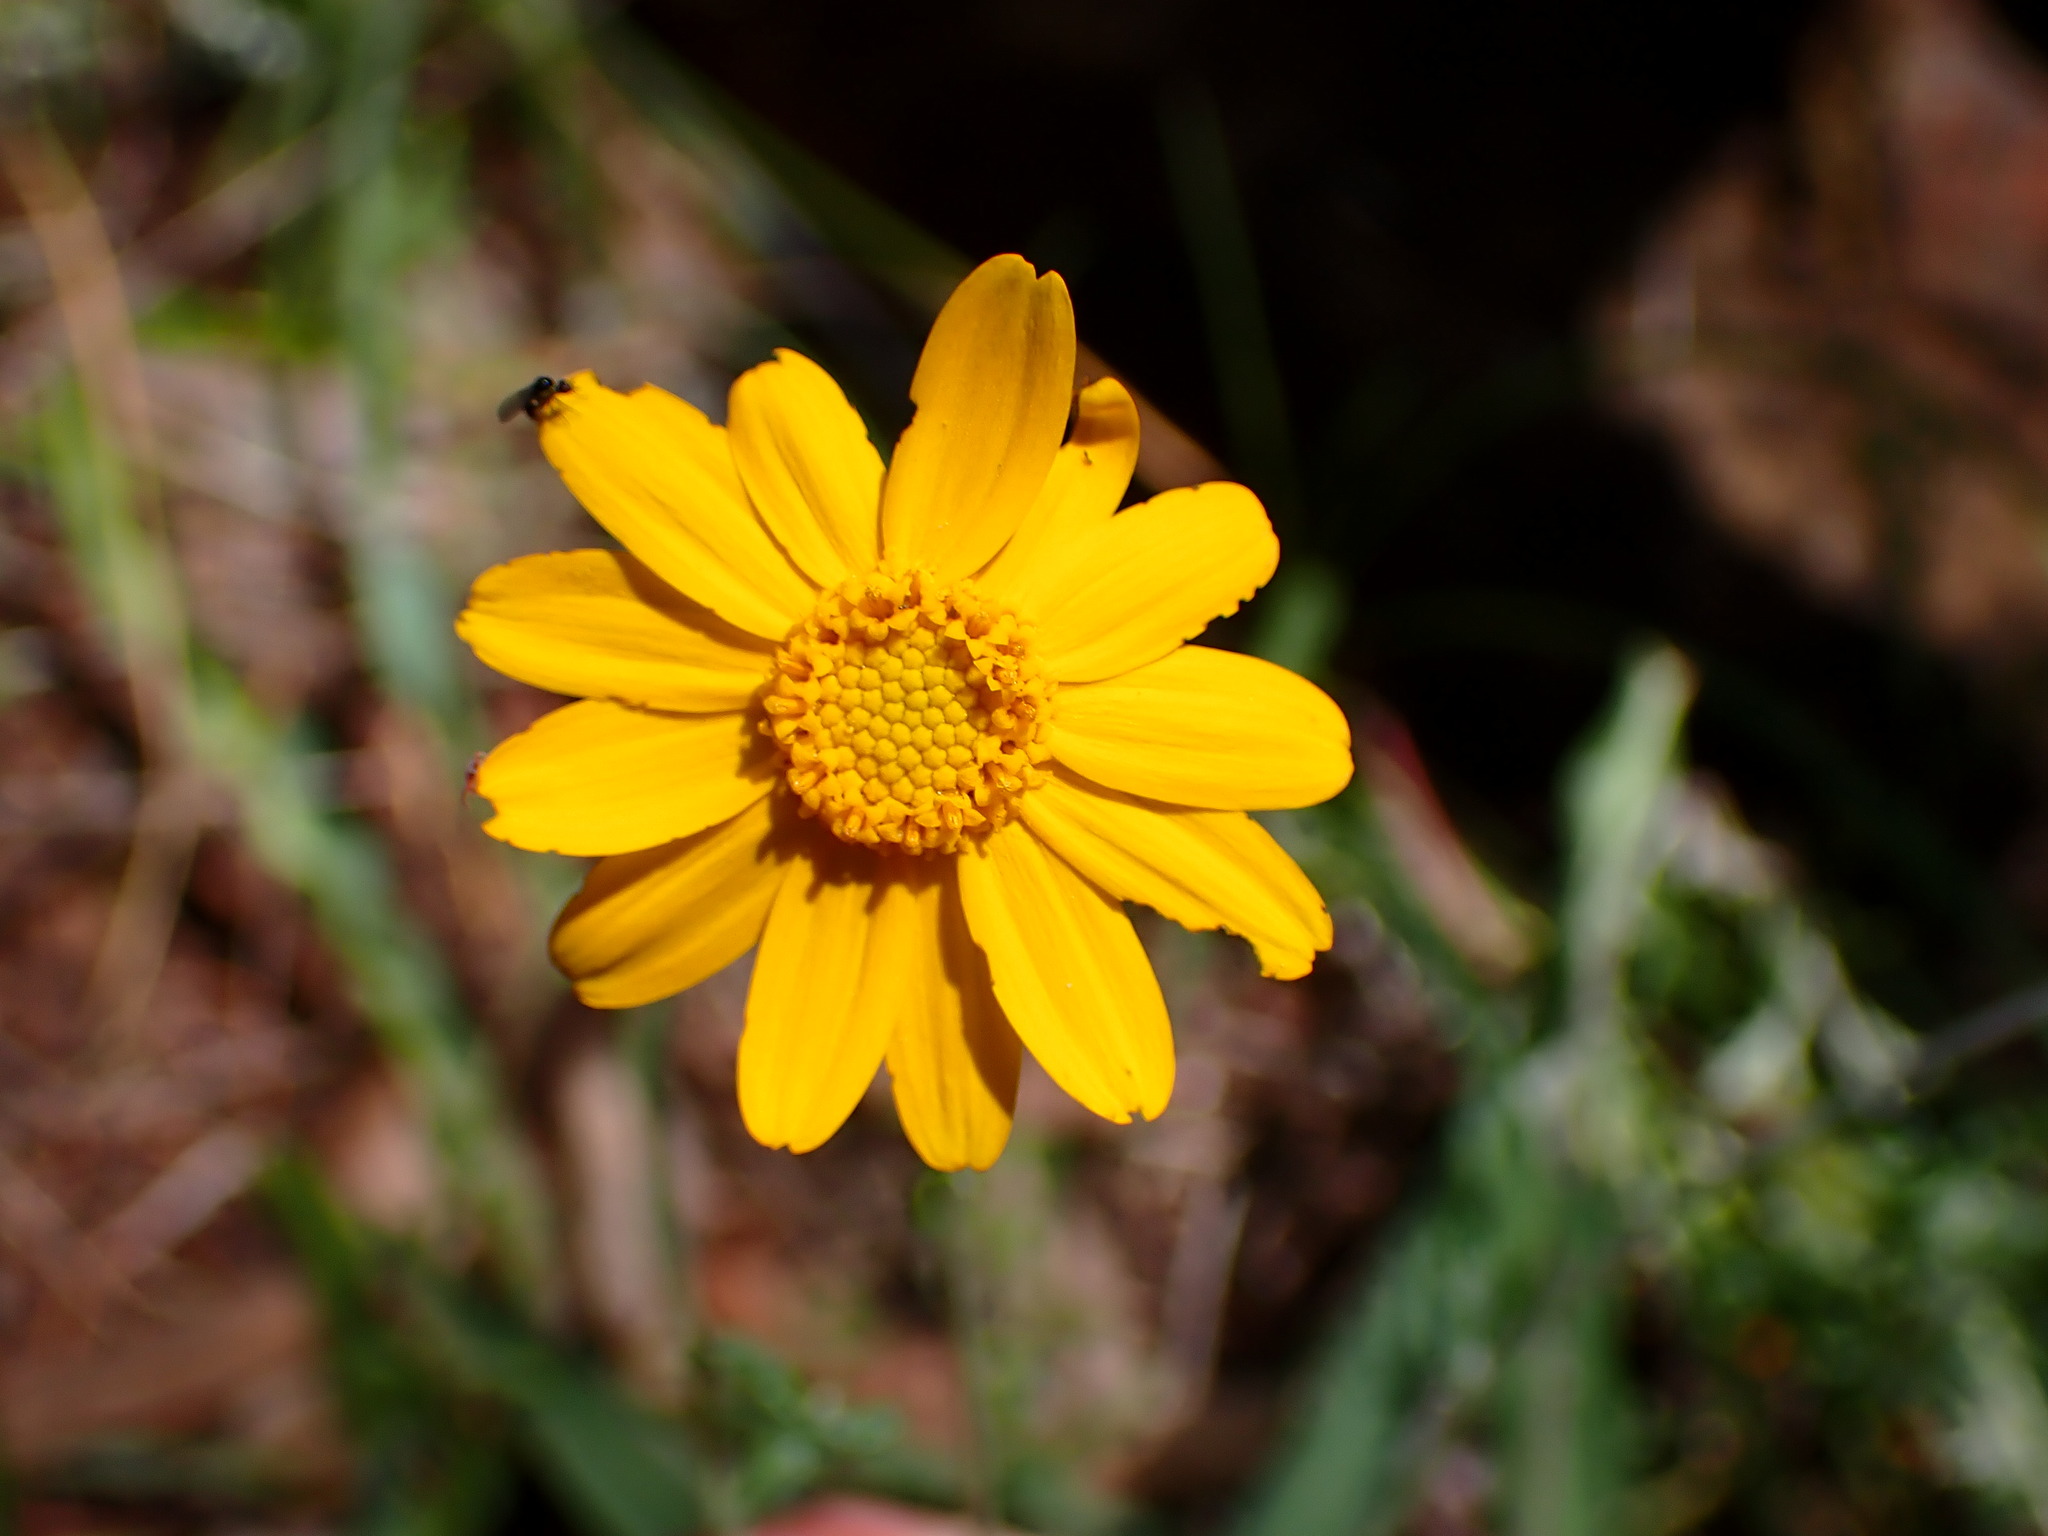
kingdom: Plantae
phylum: Tracheophyta
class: Magnoliopsida
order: Asterales
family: Asteraceae
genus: Eriophyllum
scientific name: Eriophyllum lanatum
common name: Common woolly-sunflower
